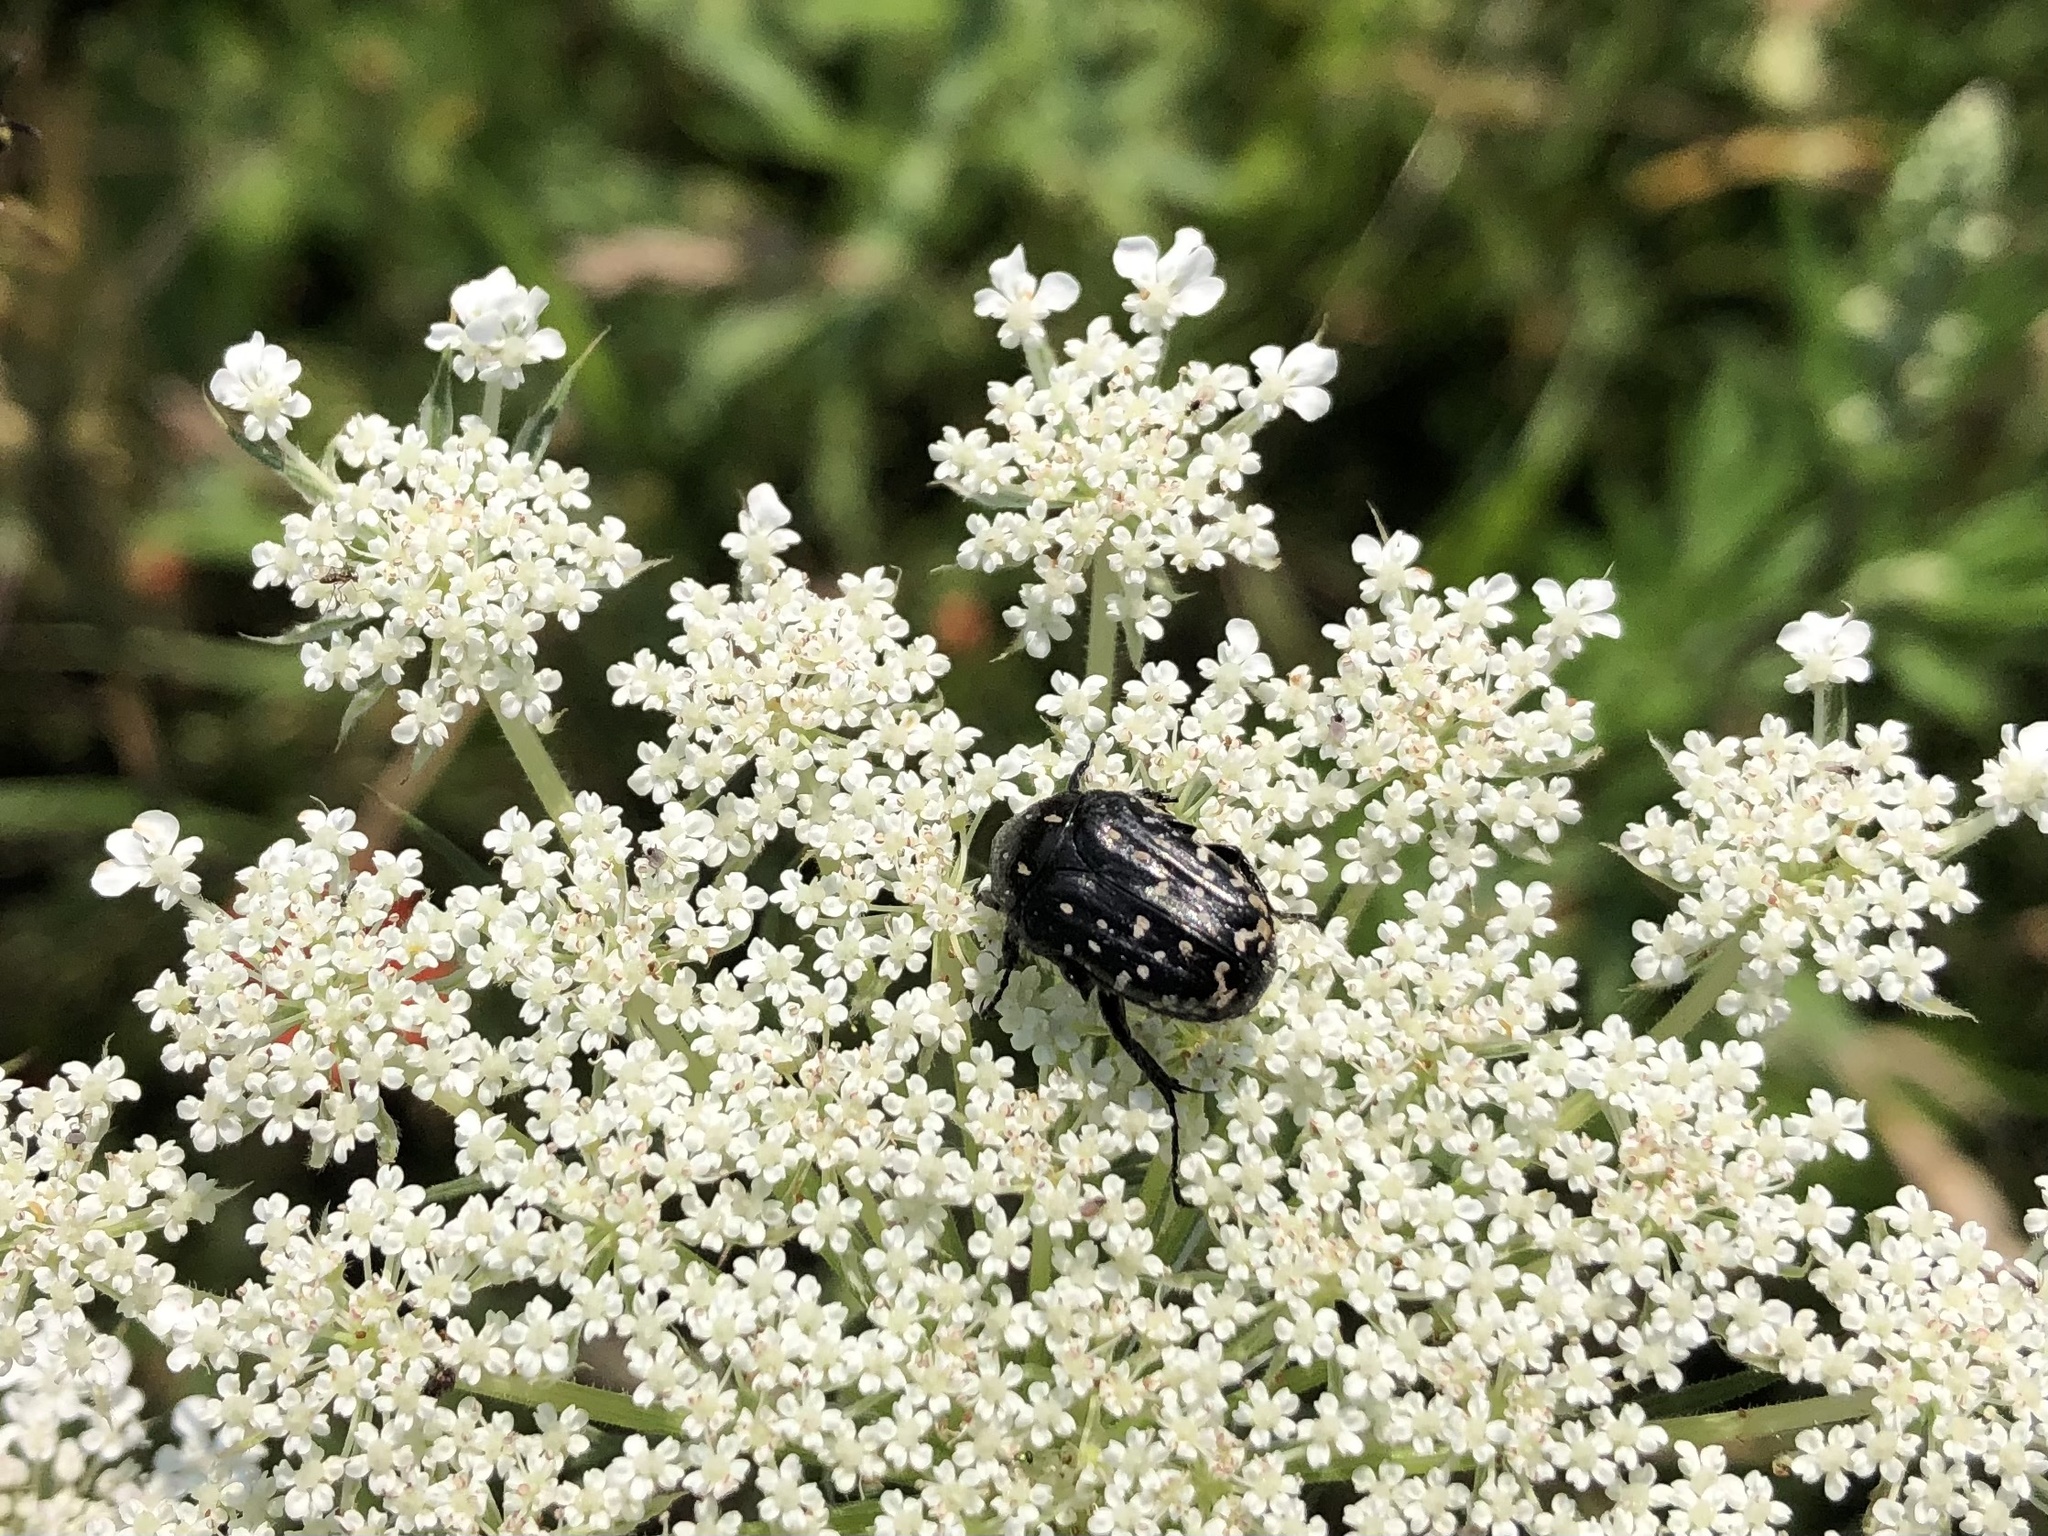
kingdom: Animalia
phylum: Arthropoda
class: Insecta
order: Coleoptera
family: Scarabaeidae
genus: Oxythyrea
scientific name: Oxythyrea funesta
